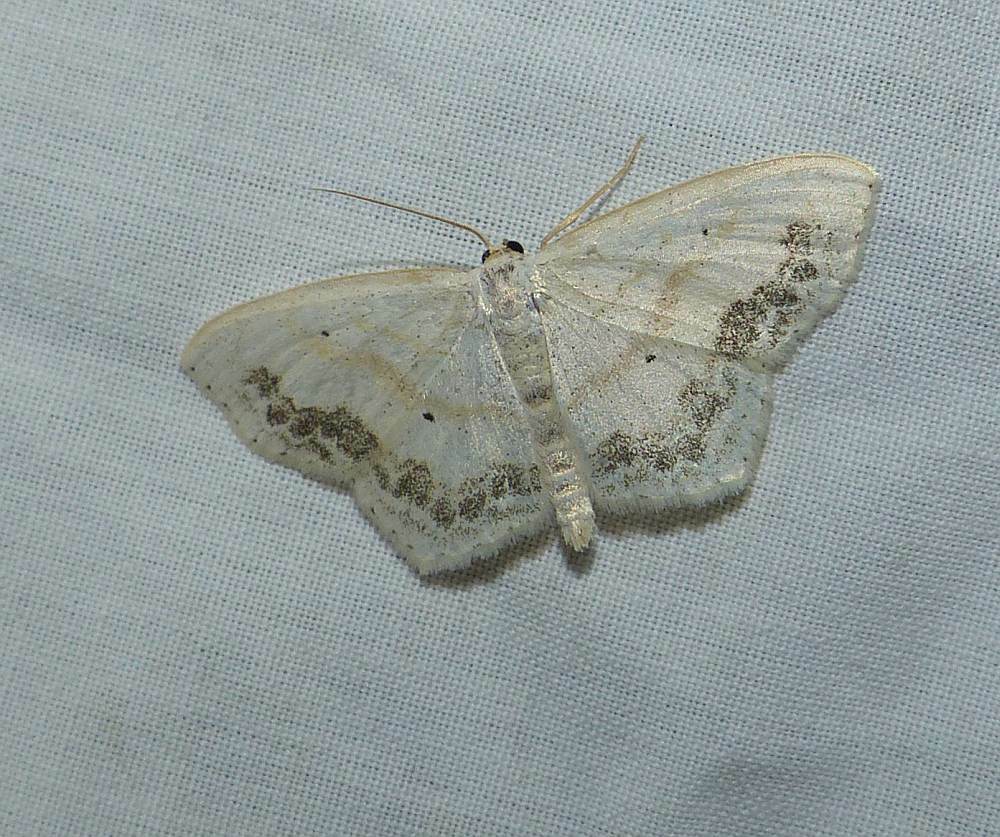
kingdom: Animalia
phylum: Arthropoda
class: Insecta
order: Lepidoptera
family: Geometridae
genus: Scopula
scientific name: Scopula limboundata
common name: Large lace border
